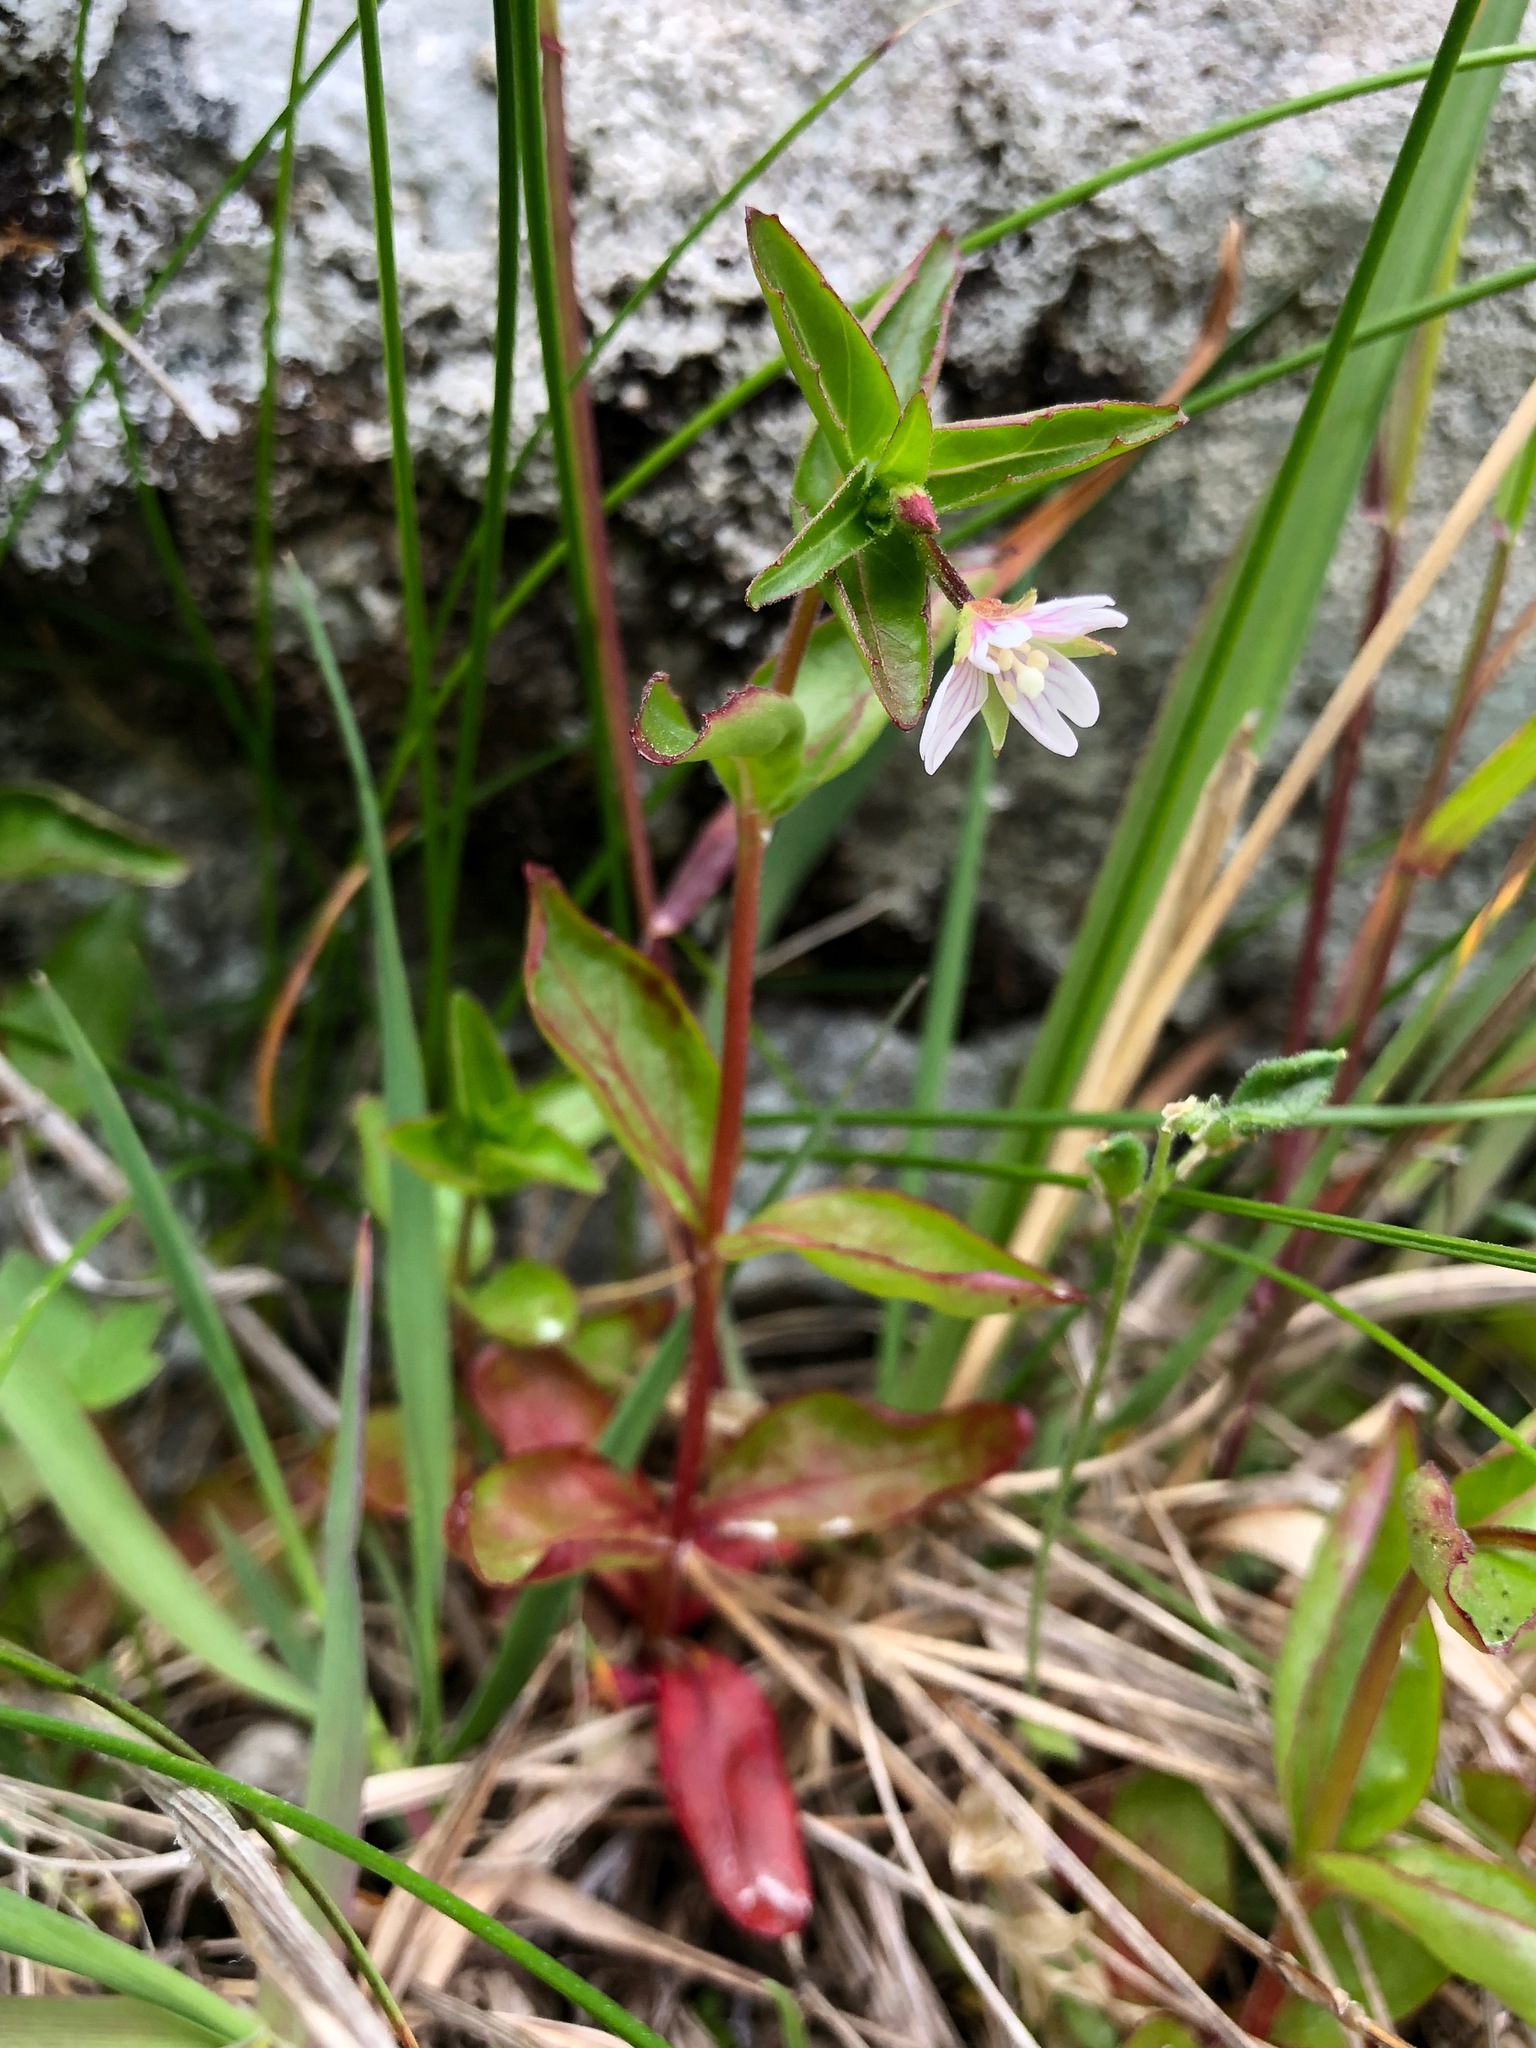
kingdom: Plantae
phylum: Tracheophyta
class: Magnoliopsida
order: Myrtales
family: Onagraceae
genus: Epilobium
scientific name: Epilobium hornemannii
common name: Hornemann's willowherb
